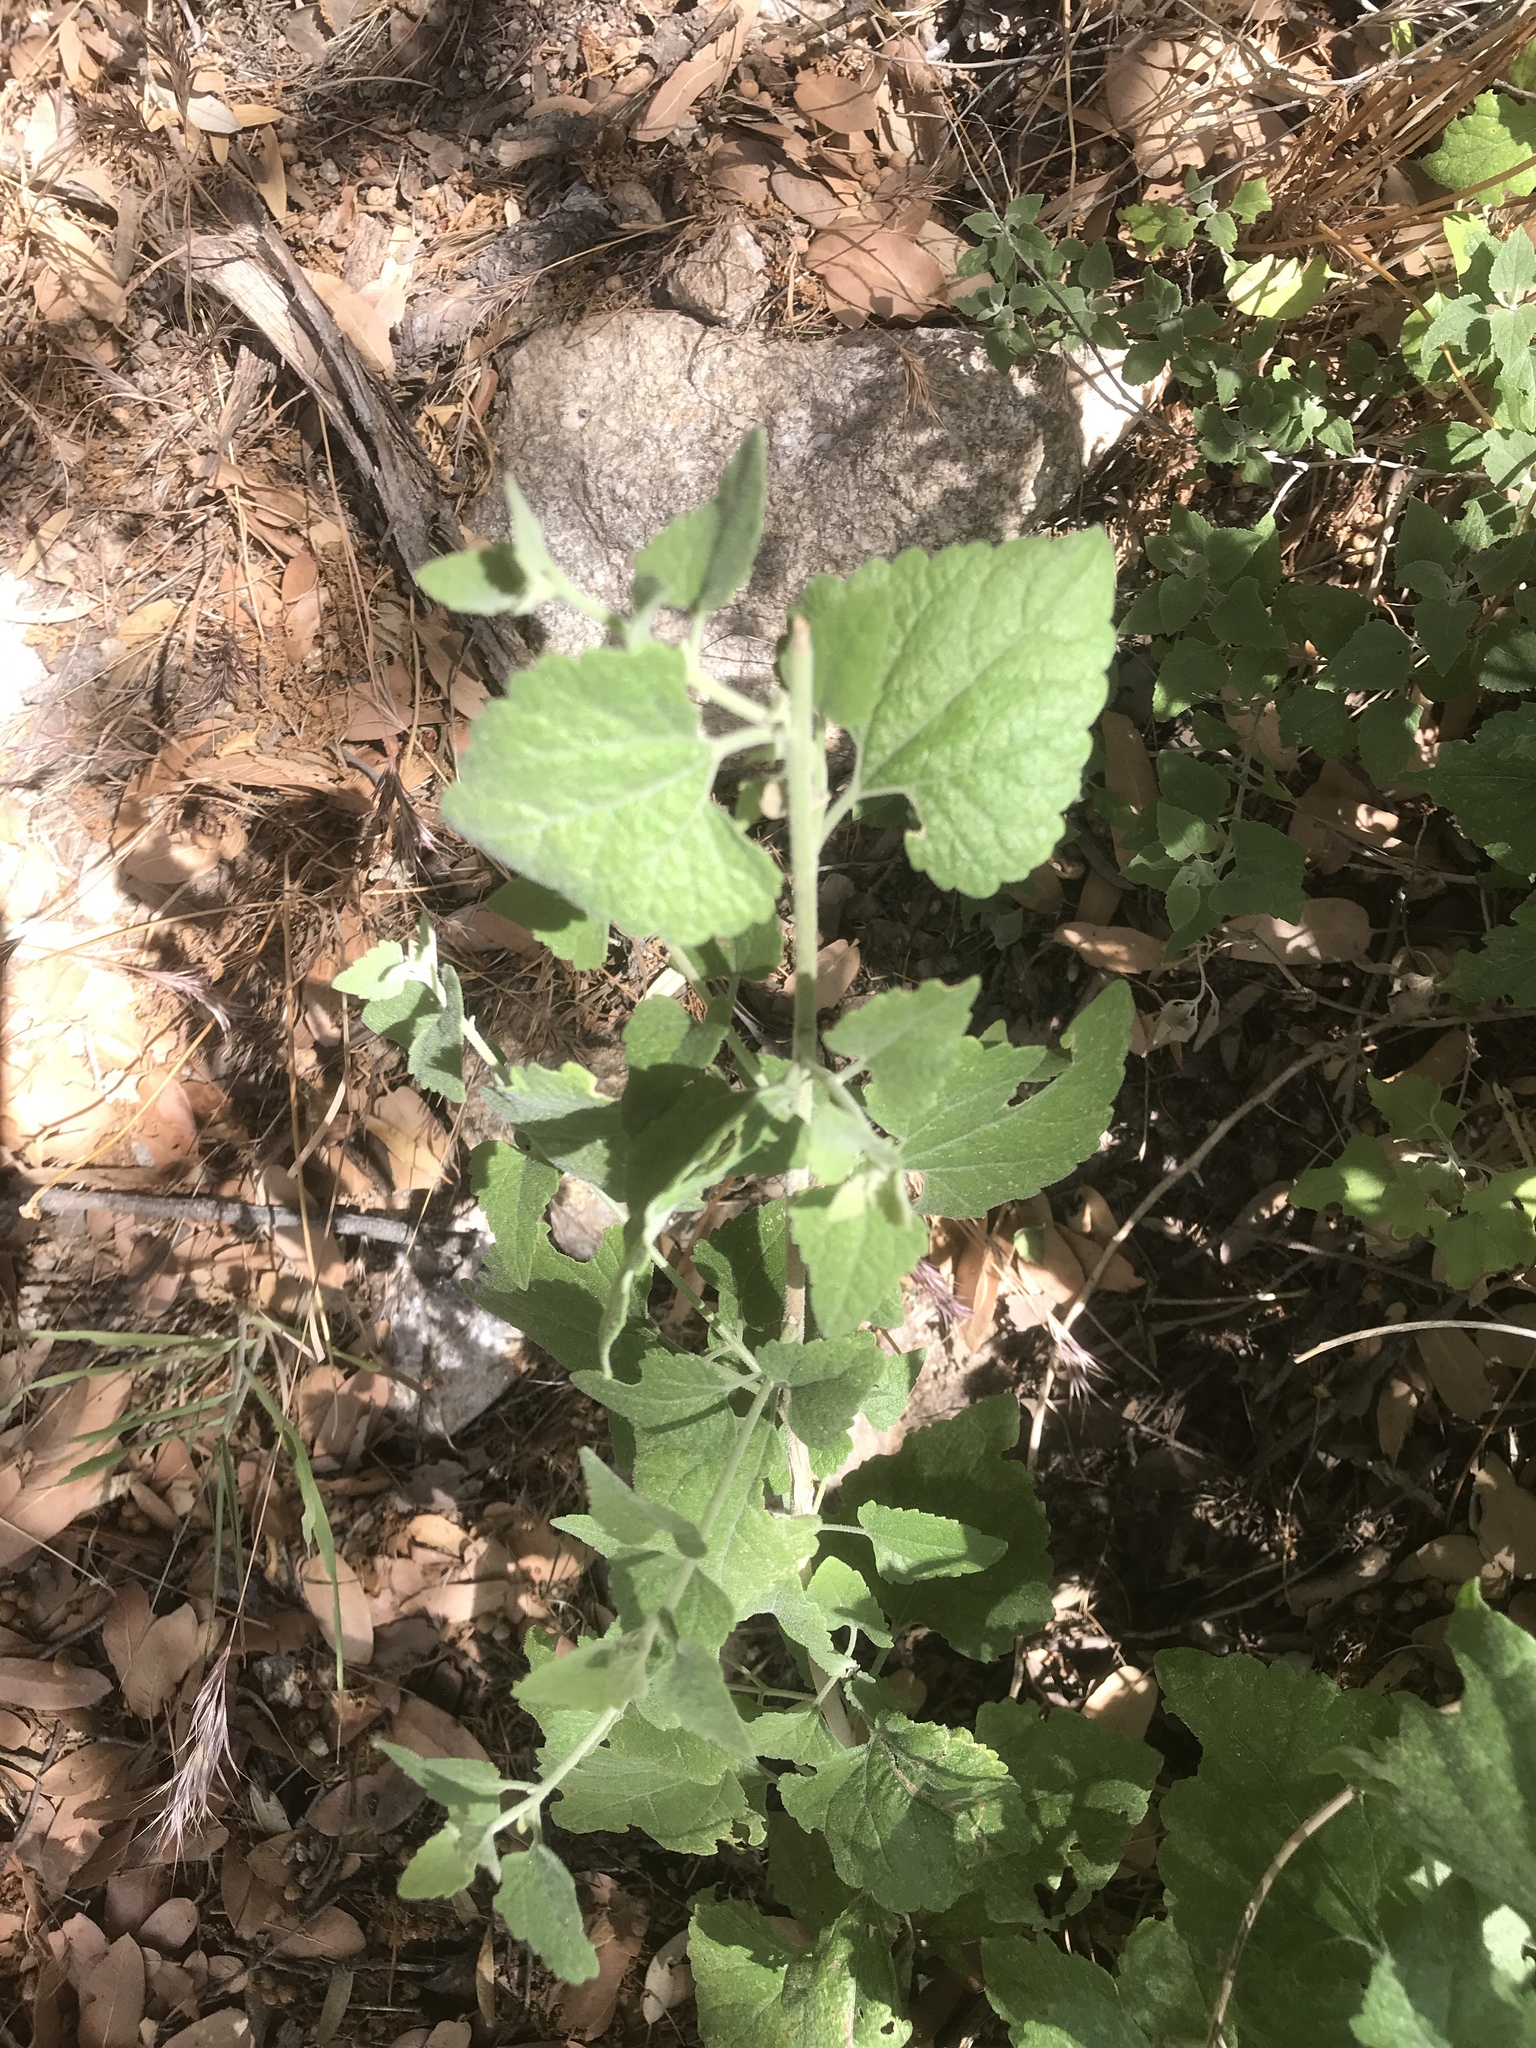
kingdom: Plantae
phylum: Tracheophyta
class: Magnoliopsida
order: Asterales
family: Asteraceae
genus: Brickellia
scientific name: Brickellia californica
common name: California brickellbush
